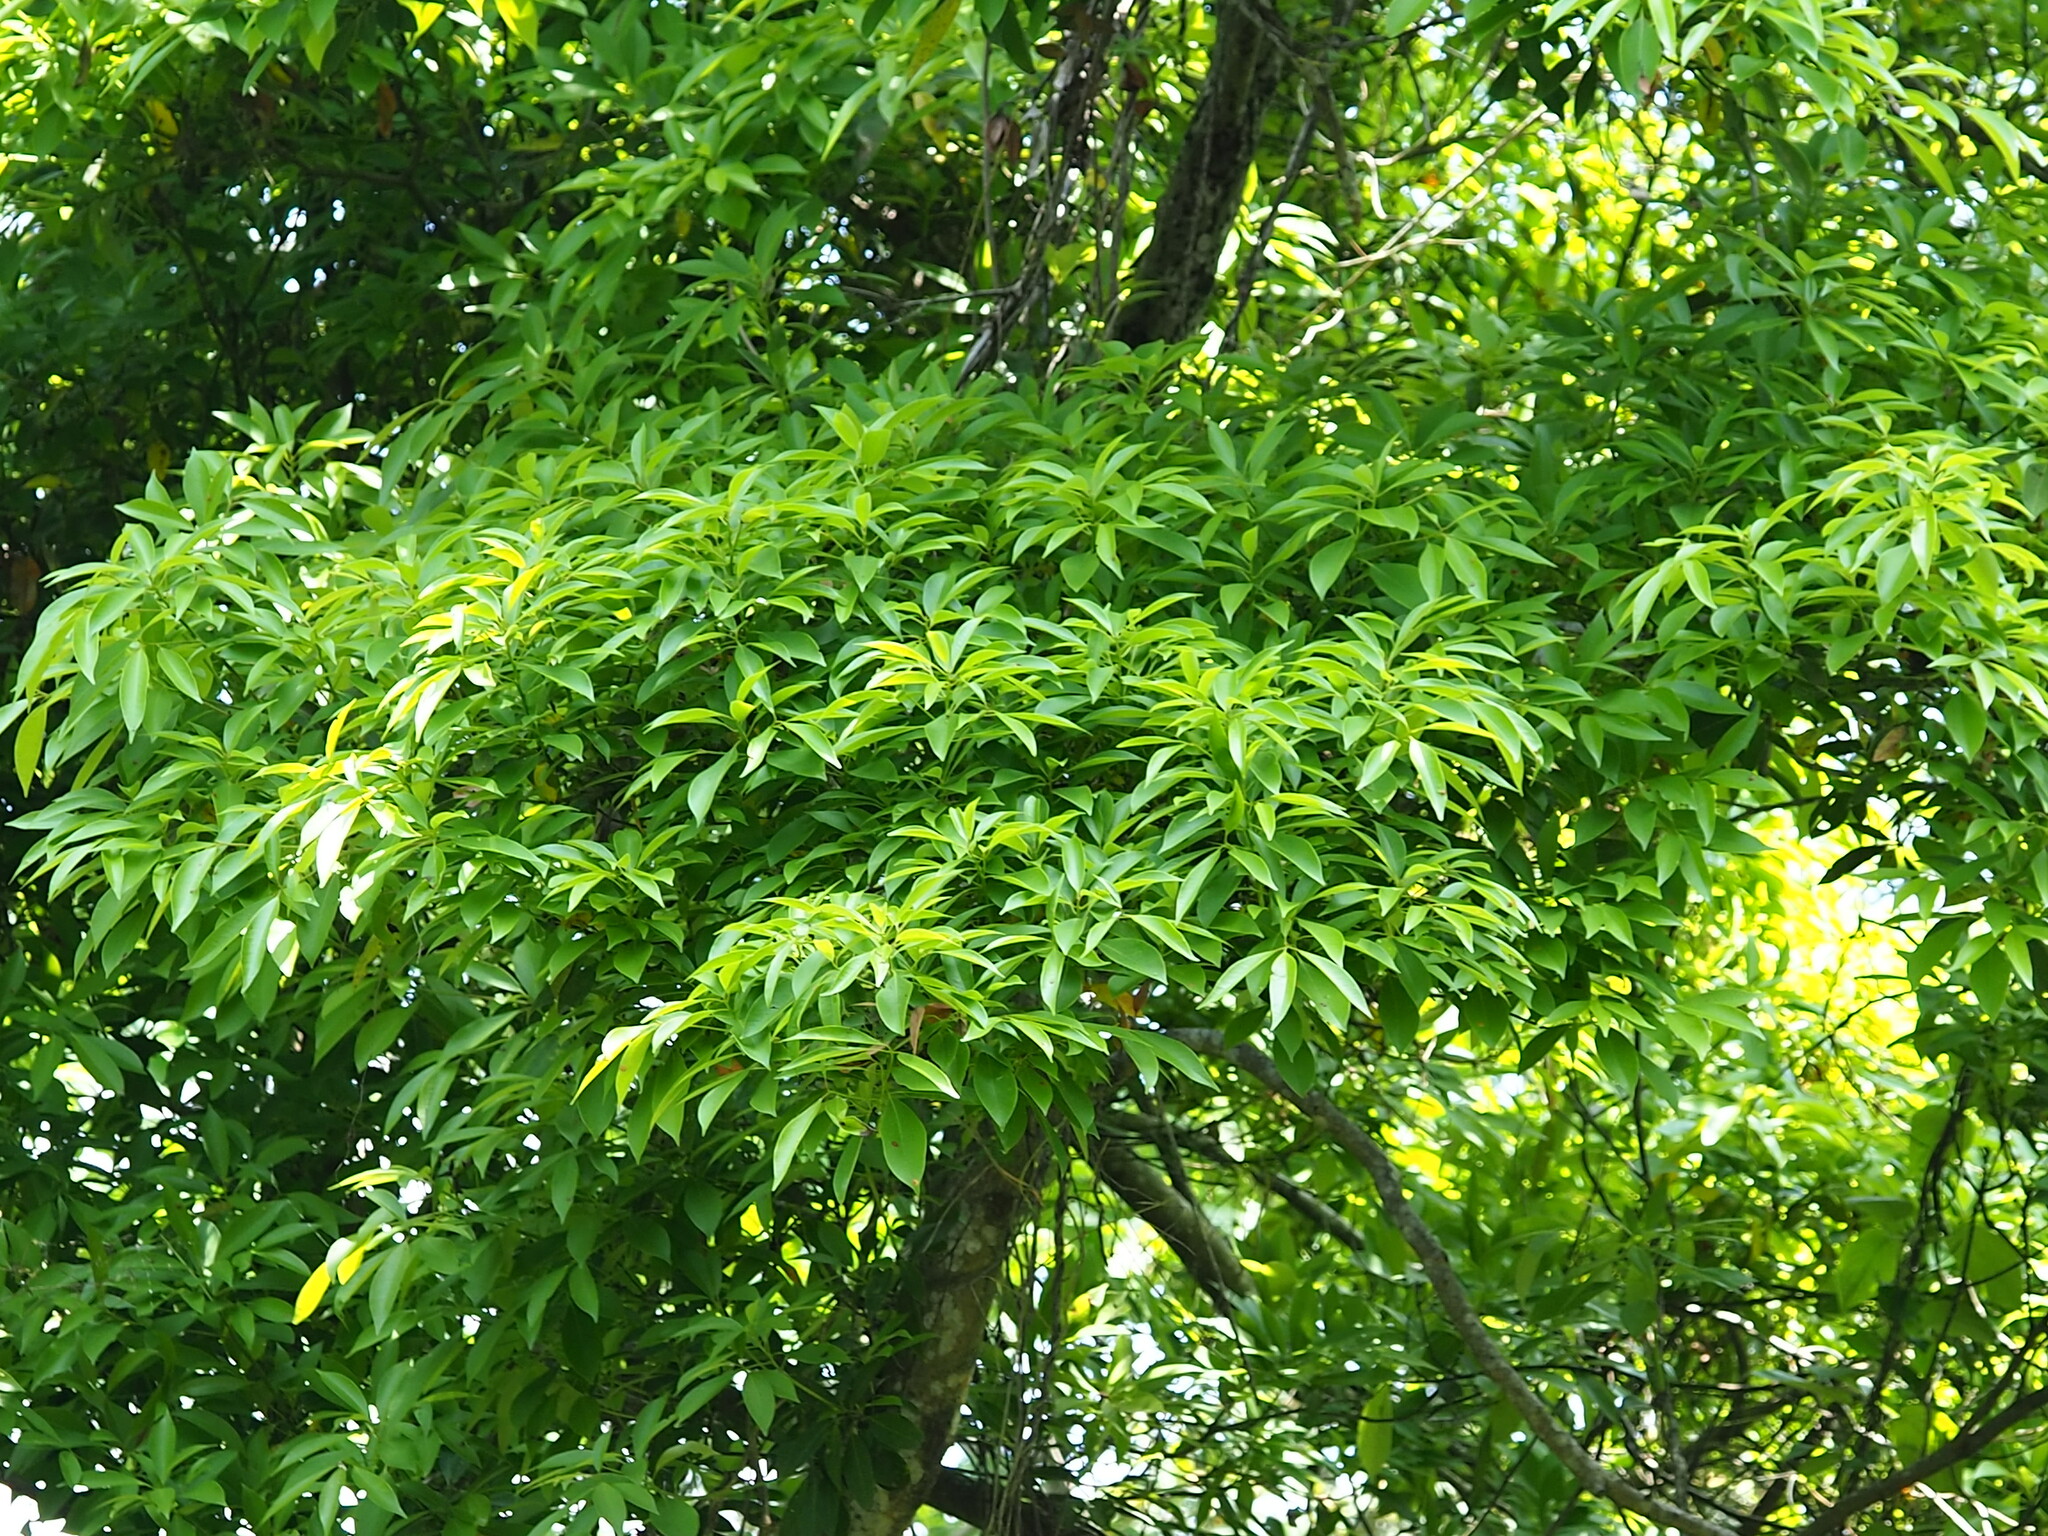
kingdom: Plantae
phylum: Tracheophyta
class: Magnoliopsida
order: Laurales
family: Lauraceae
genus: Machilus
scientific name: Machilus zuihoensis
